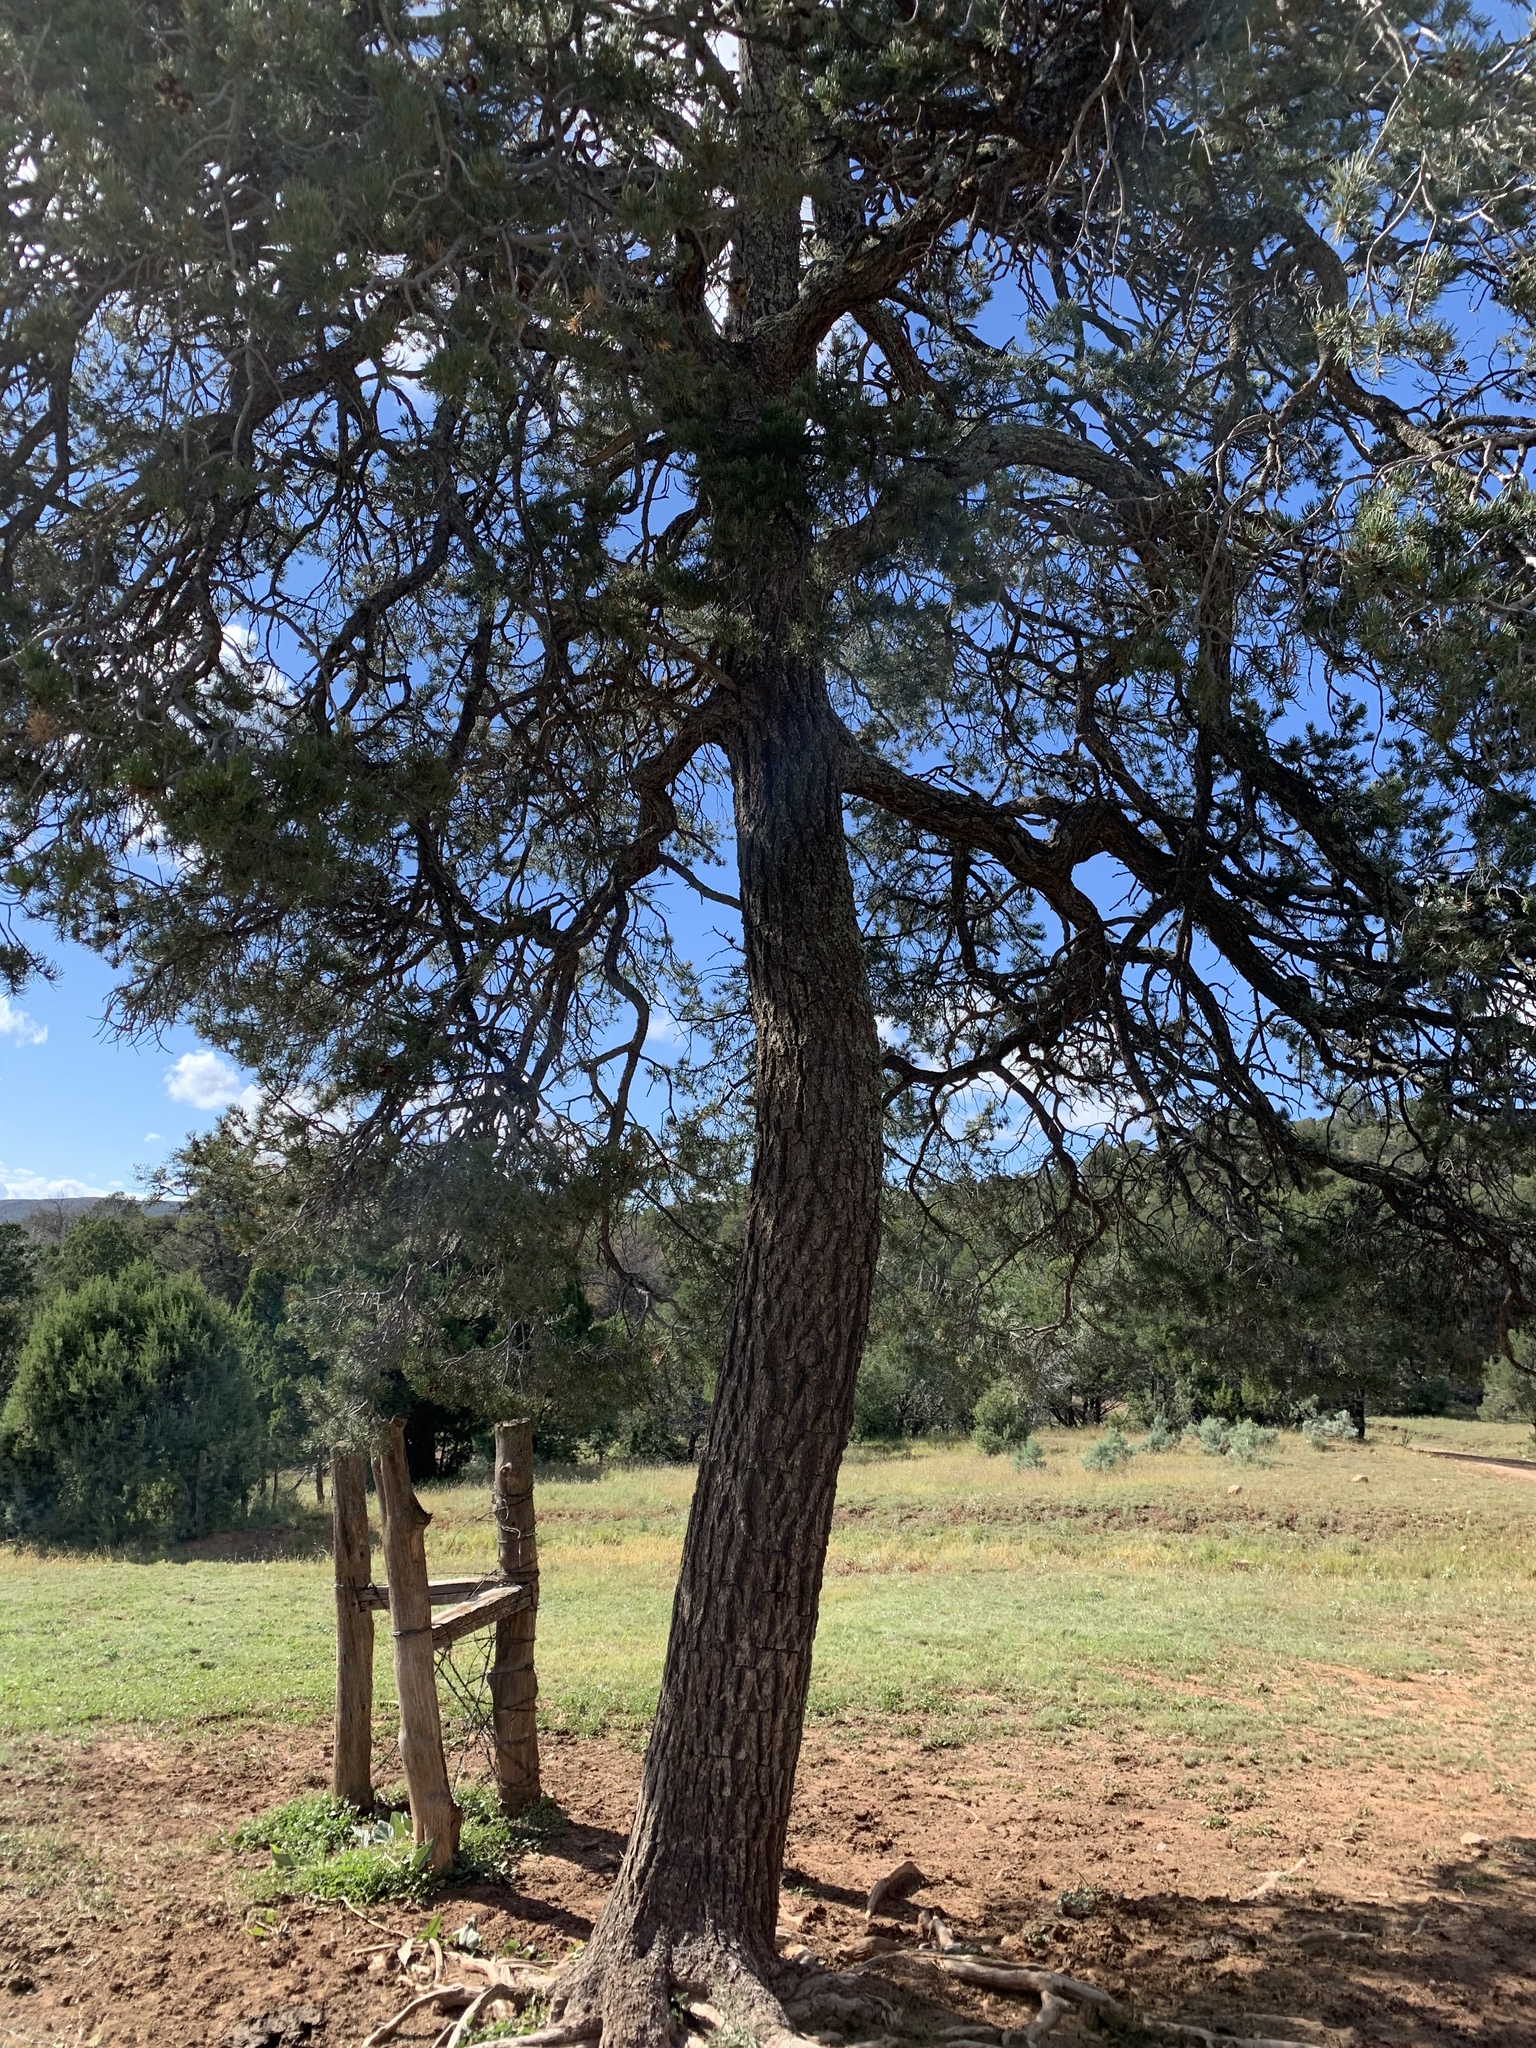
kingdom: Plantae
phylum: Tracheophyta
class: Pinopsida
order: Pinales
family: Pinaceae
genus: Pinus
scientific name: Pinus edulis
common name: Colorado pinyon
